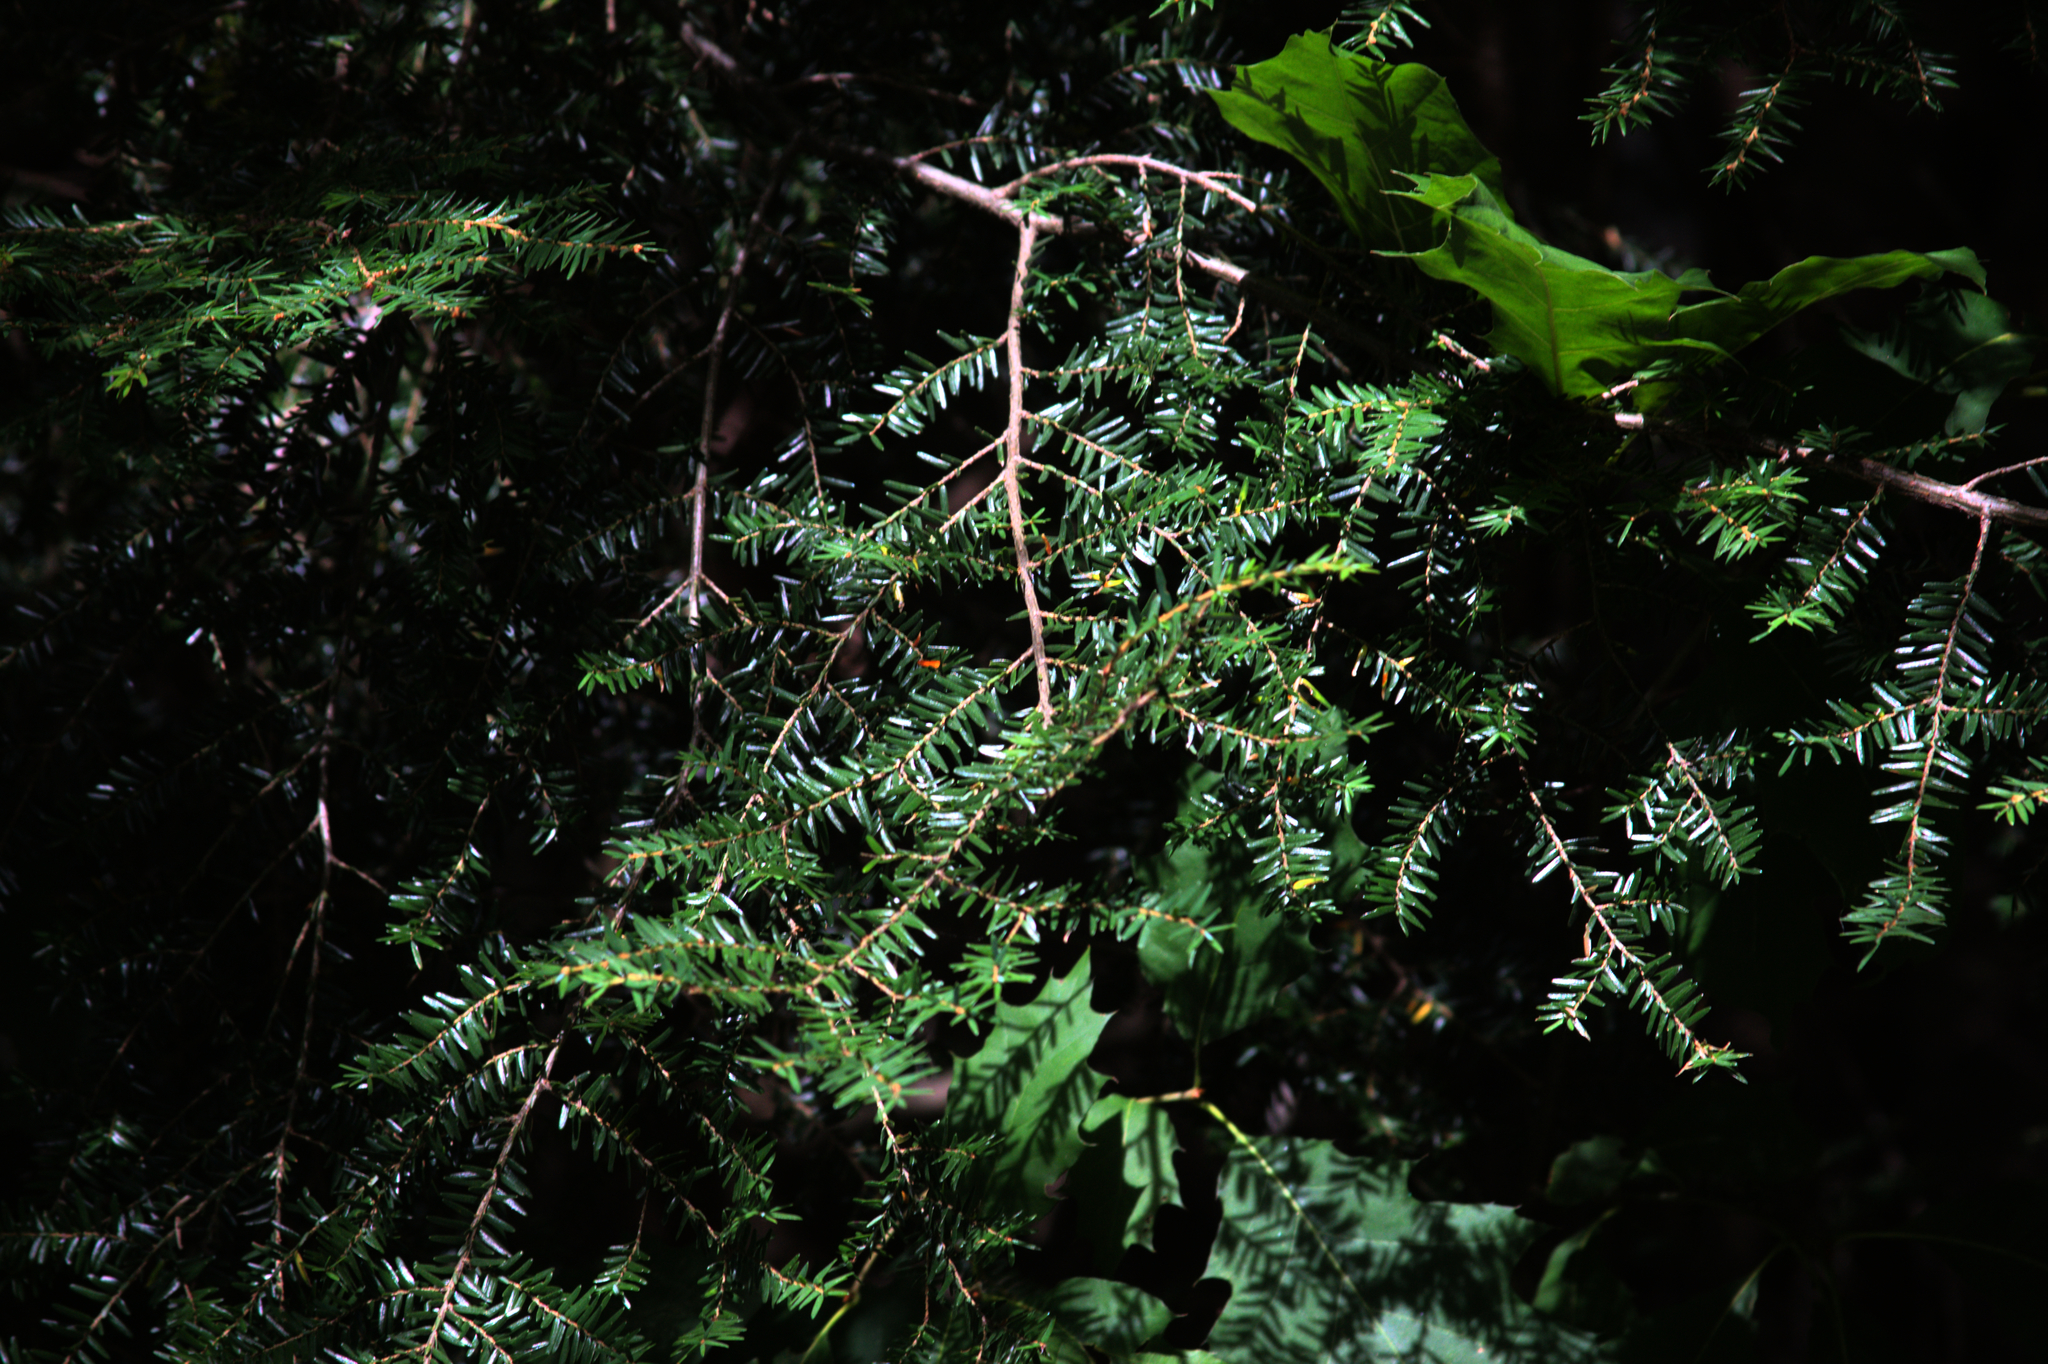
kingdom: Plantae
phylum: Tracheophyta
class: Pinopsida
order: Pinales
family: Pinaceae
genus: Tsuga
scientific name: Tsuga canadensis
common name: Eastern hemlock
